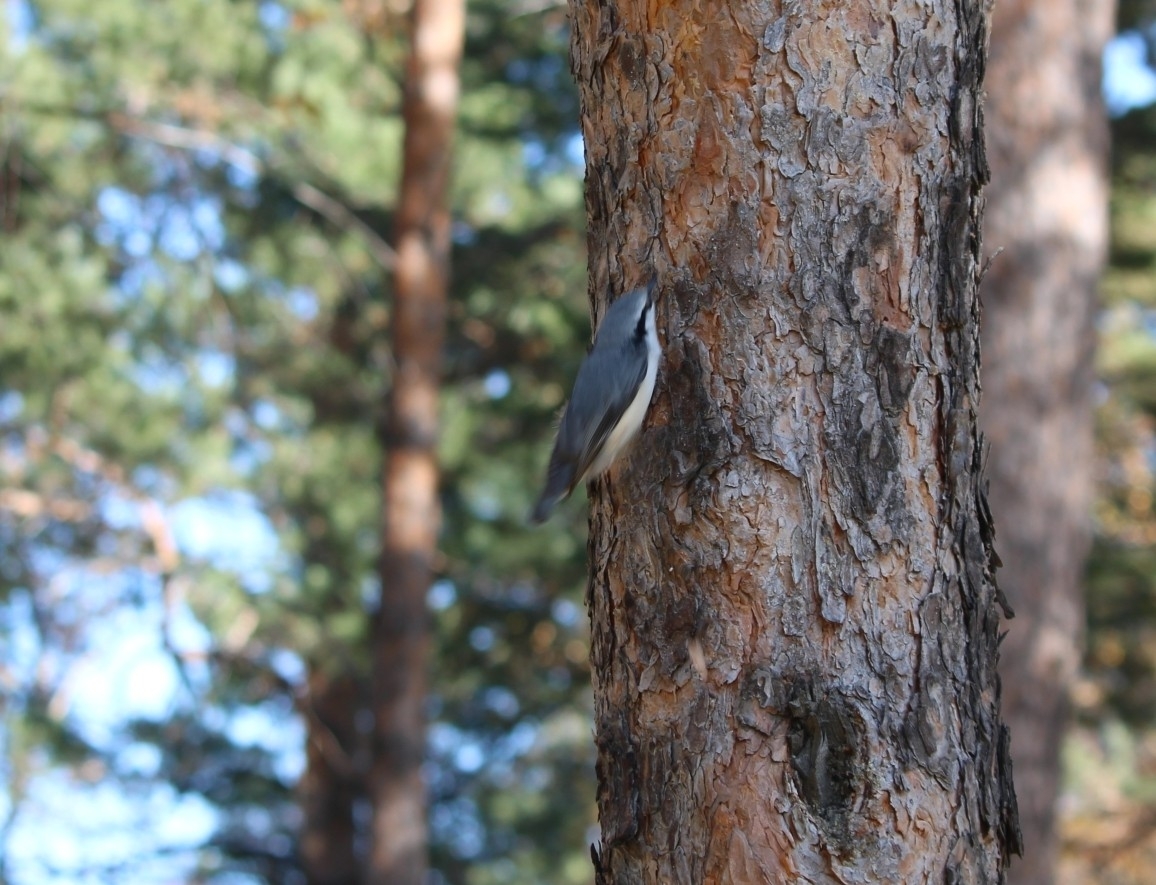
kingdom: Animalia
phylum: Chordata
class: Aves
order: Passeriformes
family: Sittidae
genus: Sitta
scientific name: Sitta europaea
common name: Eurasian nuthatch
